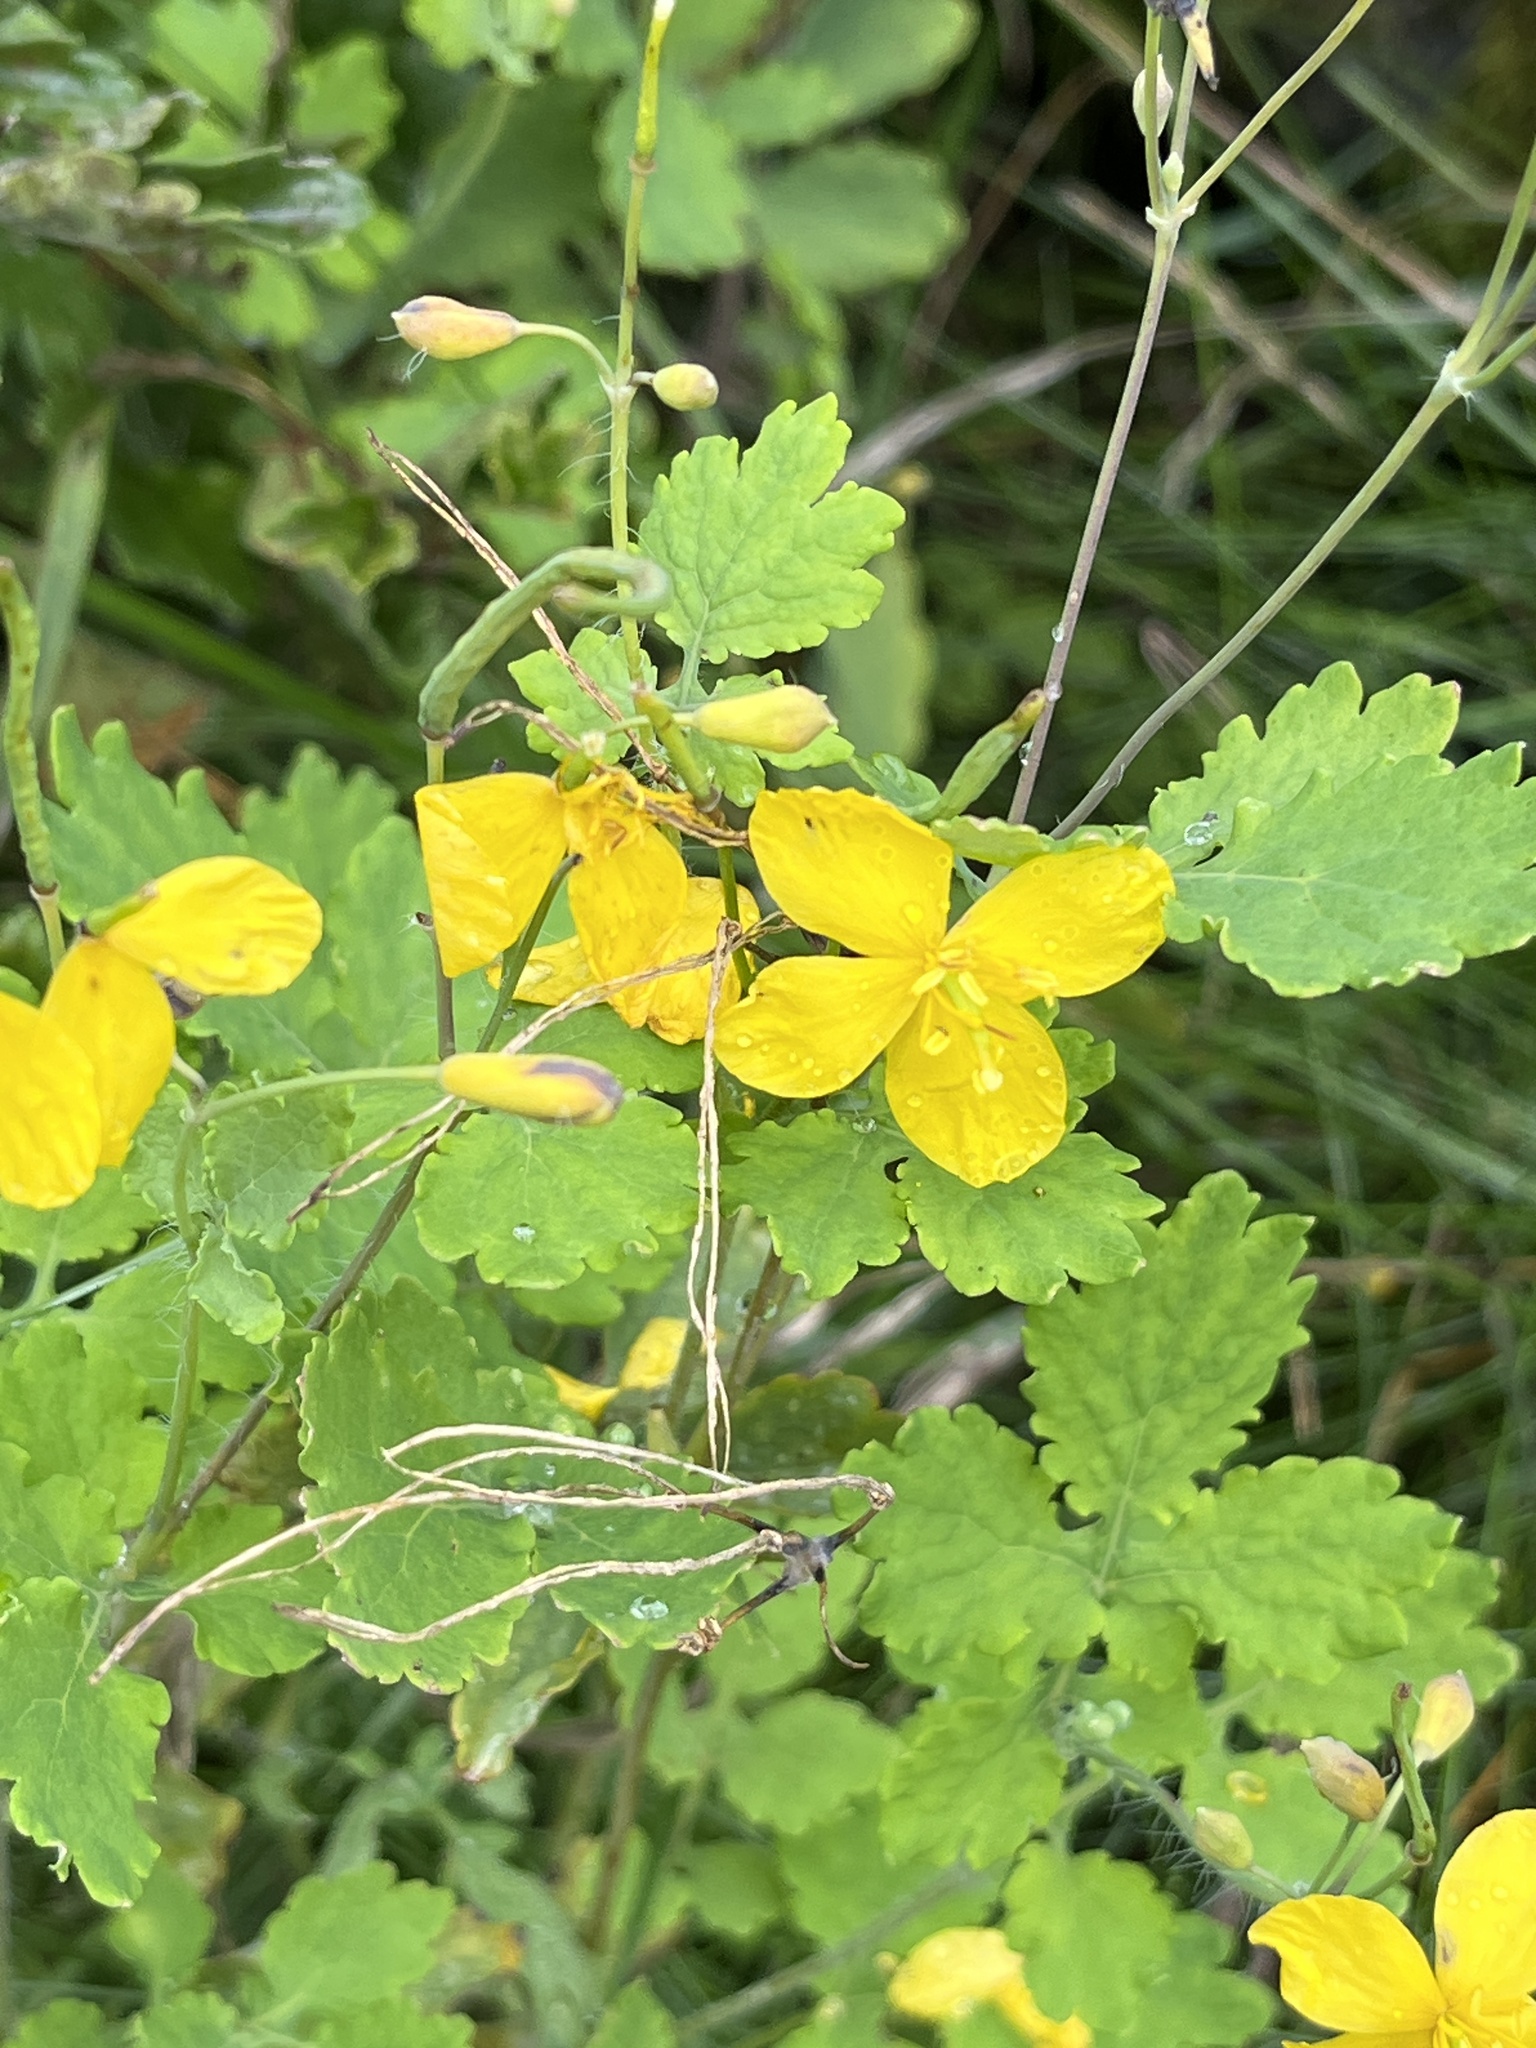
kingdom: Plantae
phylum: Tracheophyta
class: Magnoliopsida
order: Ranunculales
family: Papaveraceae
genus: Chelidonium
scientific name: Chelidonium majus
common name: Greater celandine
